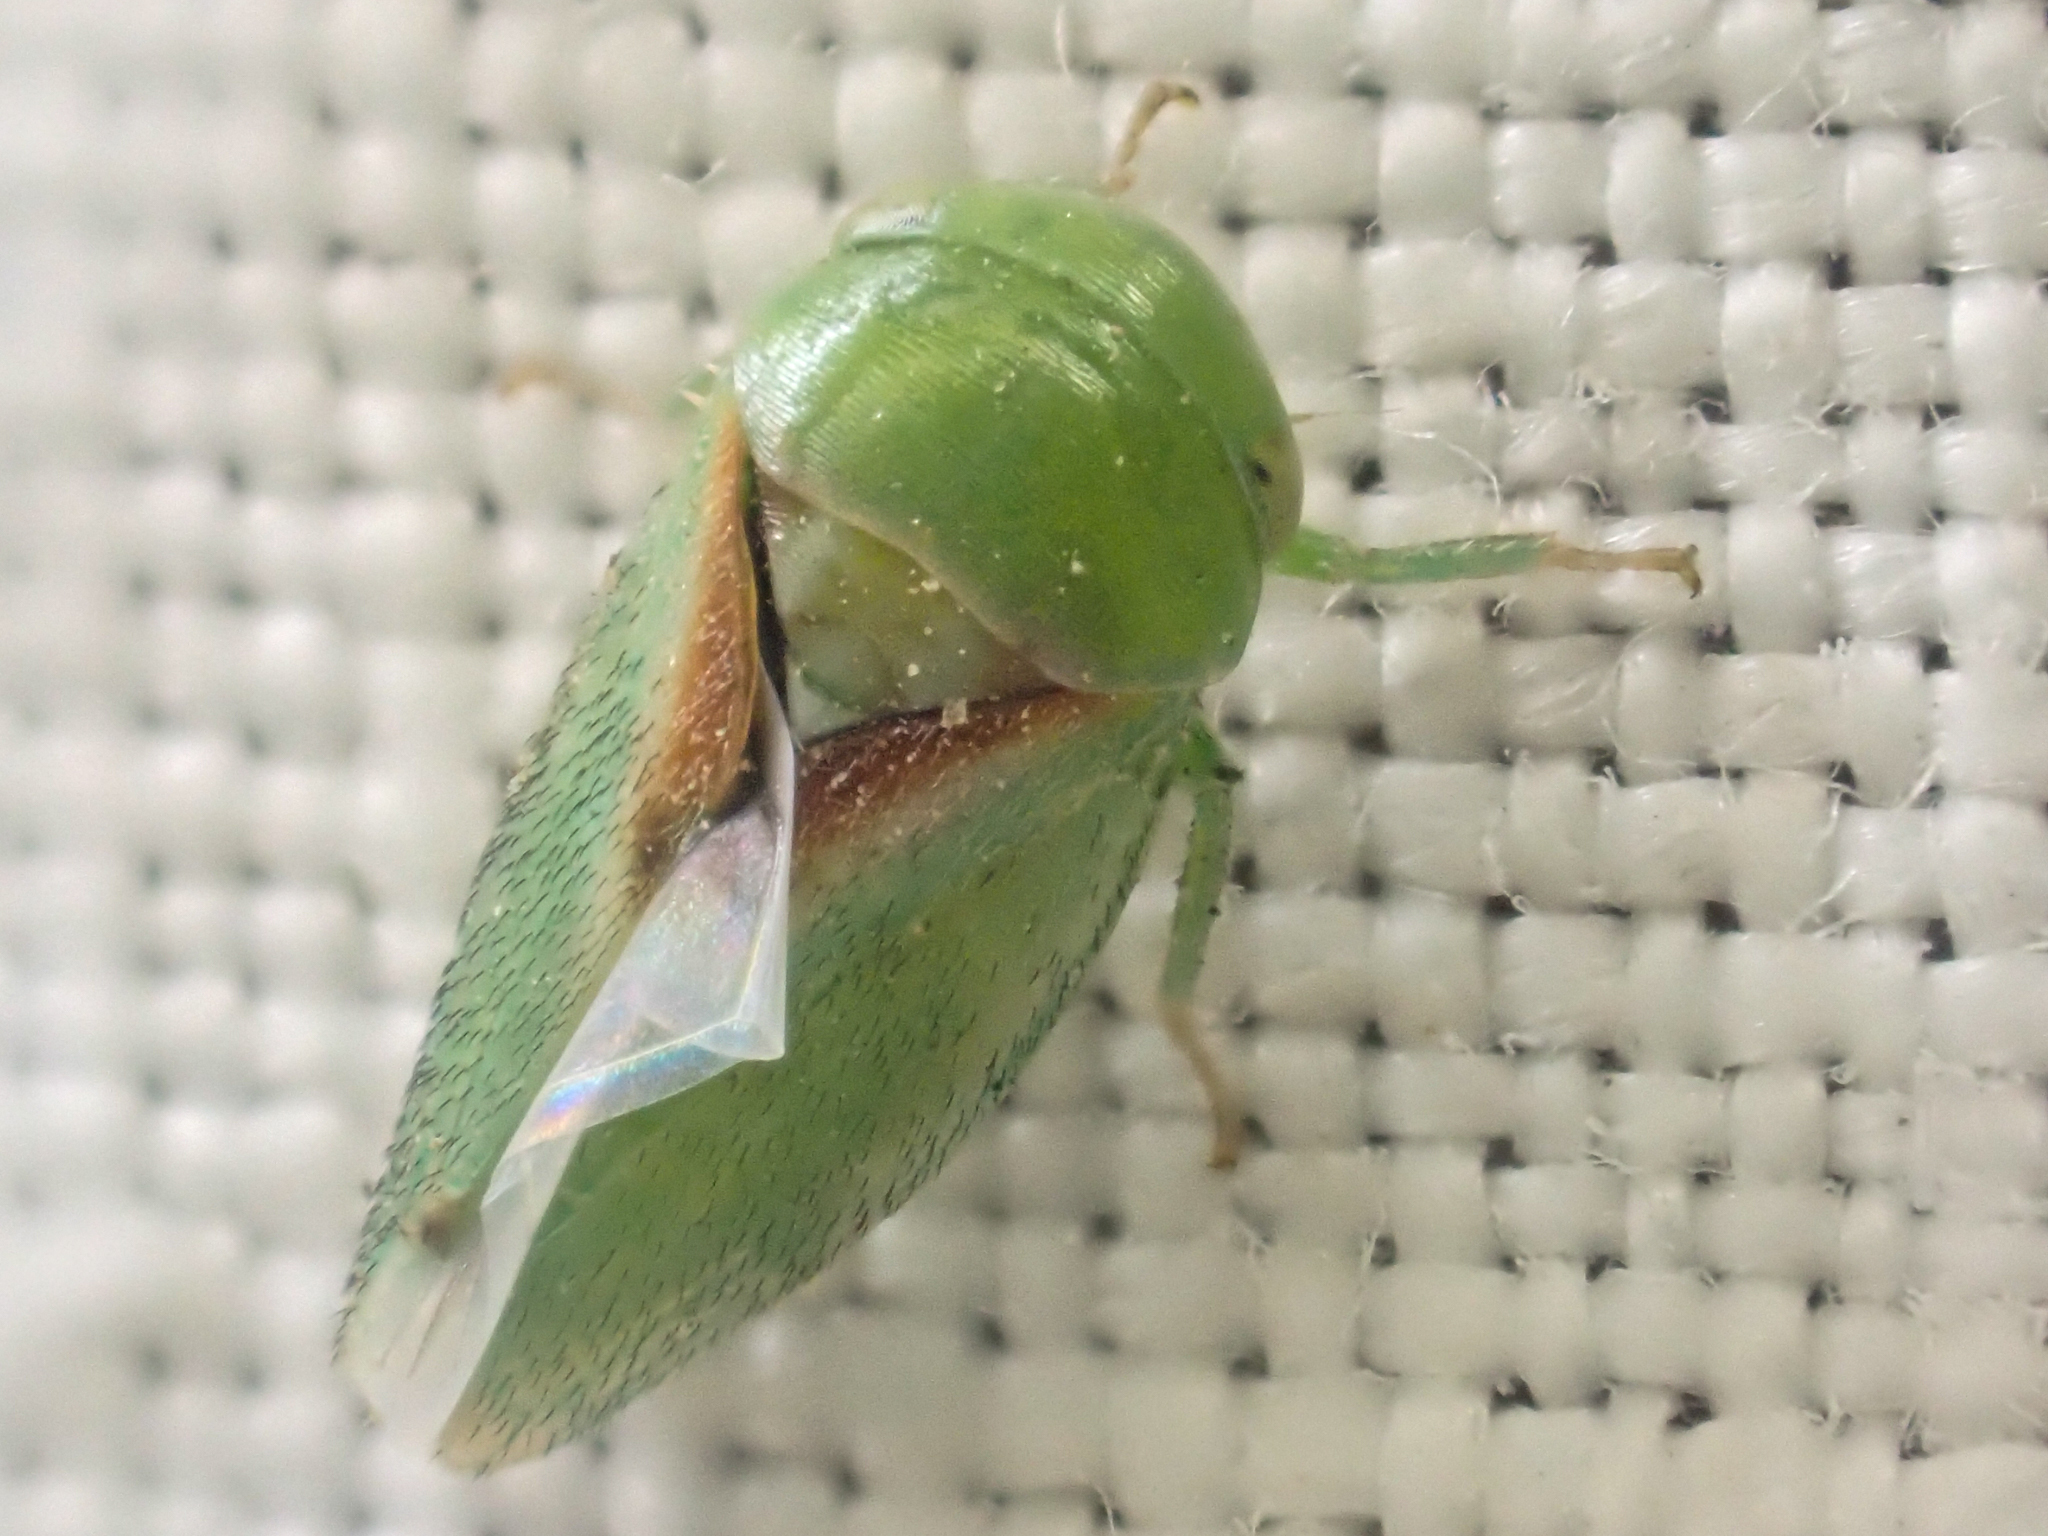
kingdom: Animalia
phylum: Arthropoda
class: Insecta
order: Hemiptera
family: Cicadellidae
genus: Momoria
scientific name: Momoria bisignata
